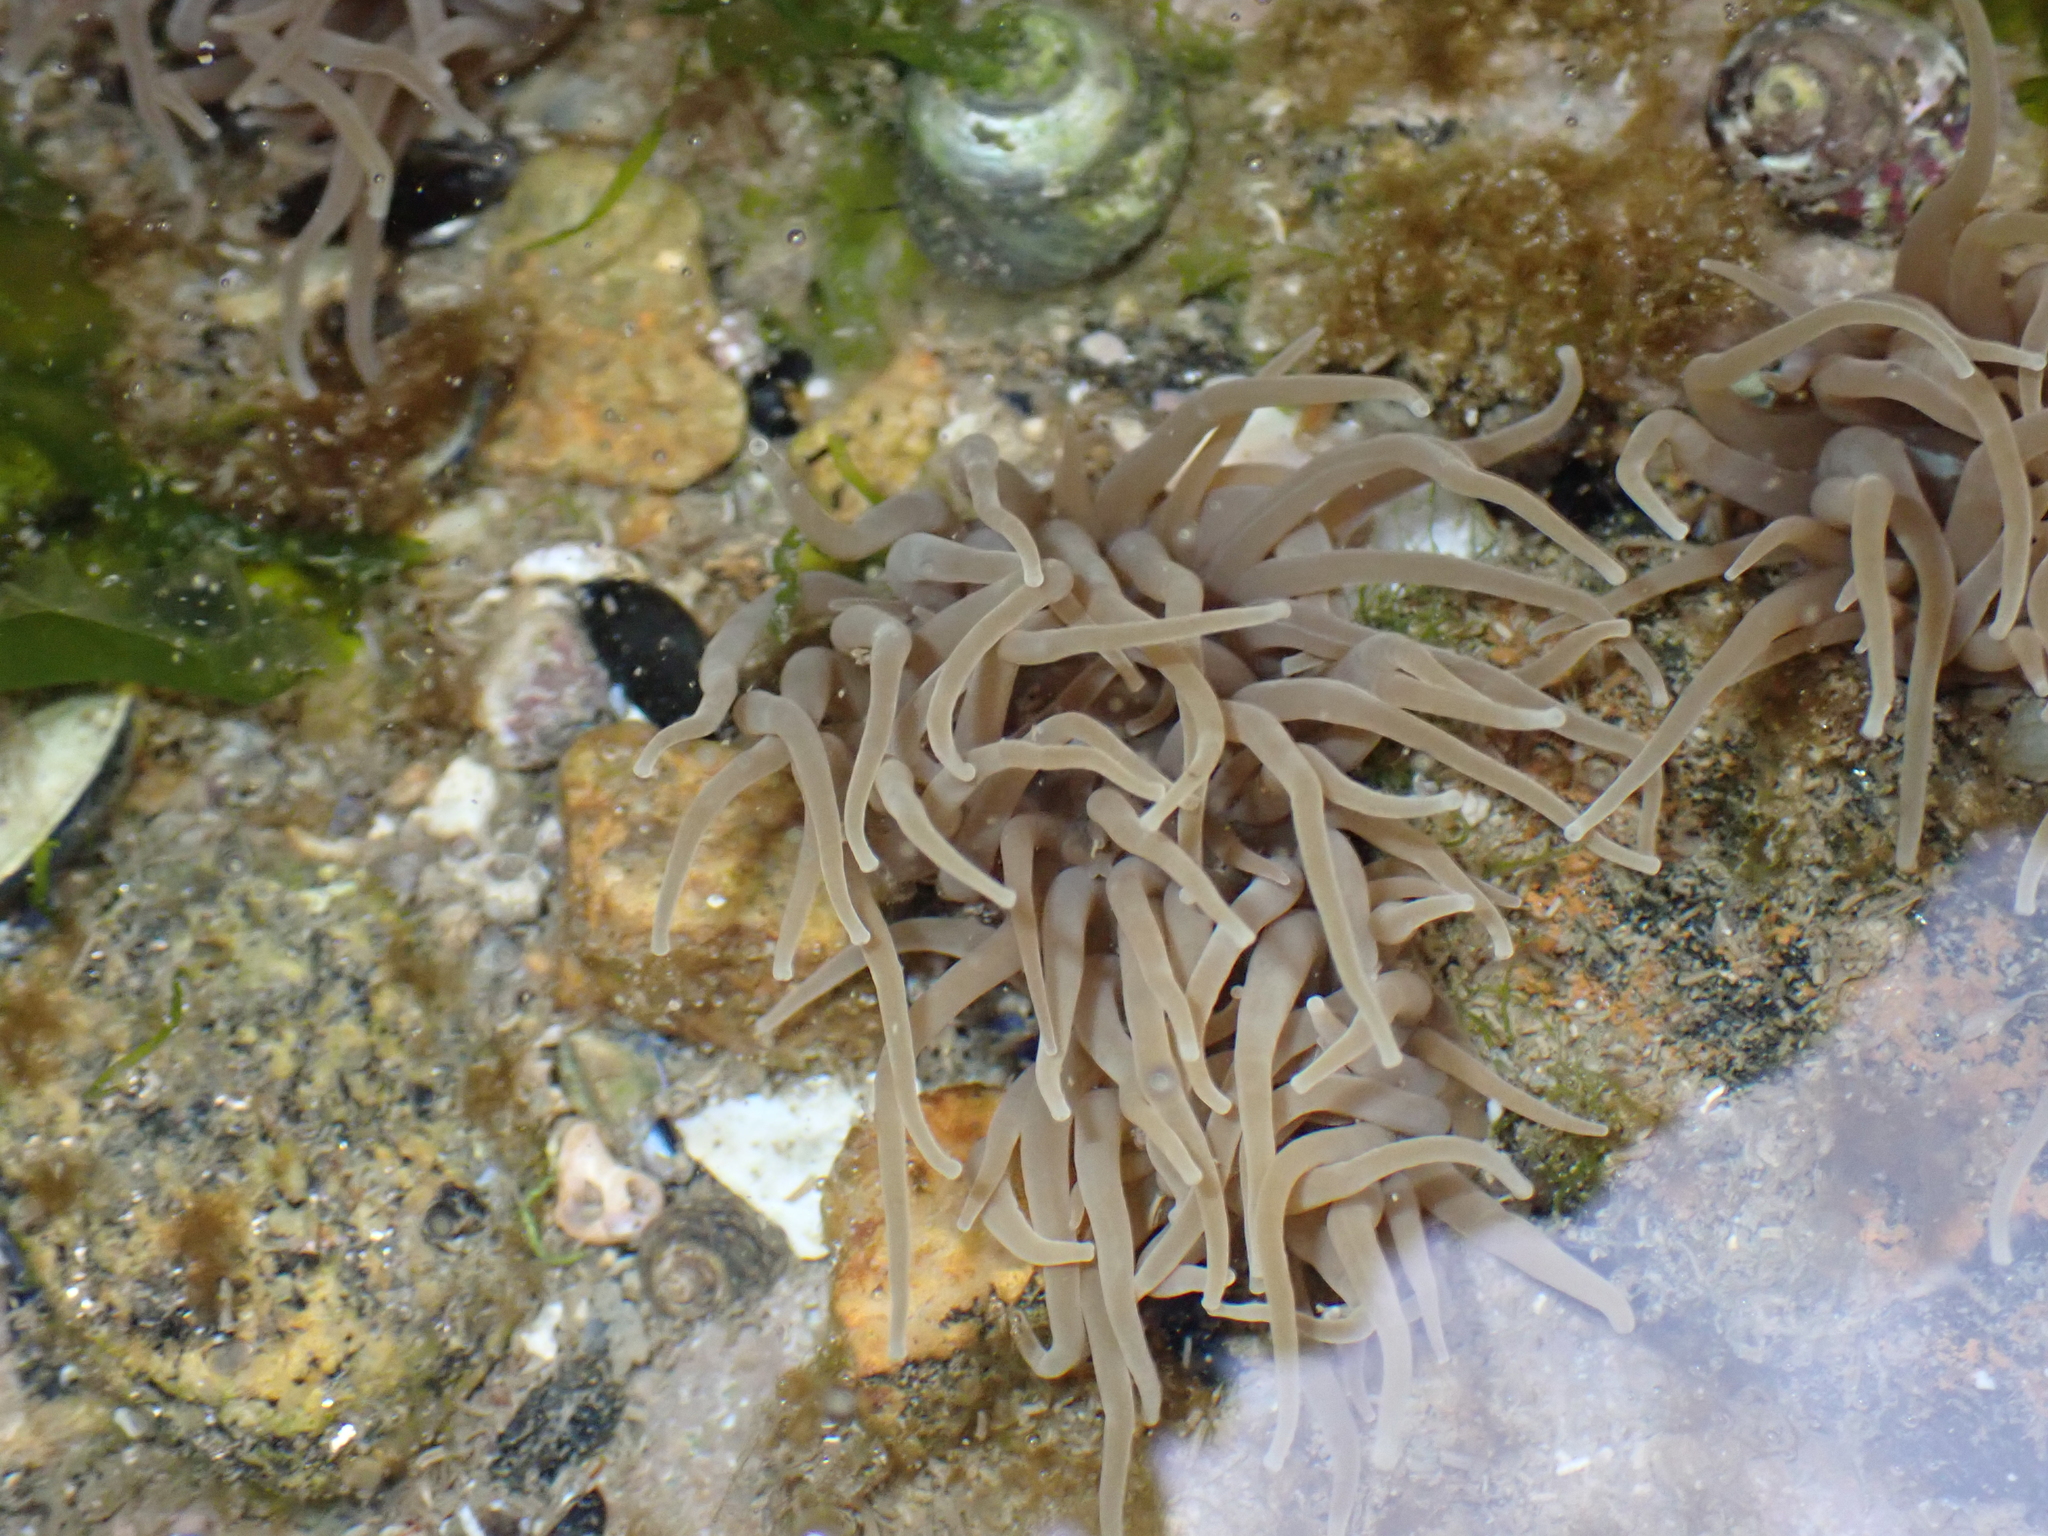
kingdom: Animalia
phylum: Cnidaria
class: Anthozoa
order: Actiniaria
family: Actiniidae
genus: Anemonia
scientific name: Anemonia viridis
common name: Snakelocks anemone
